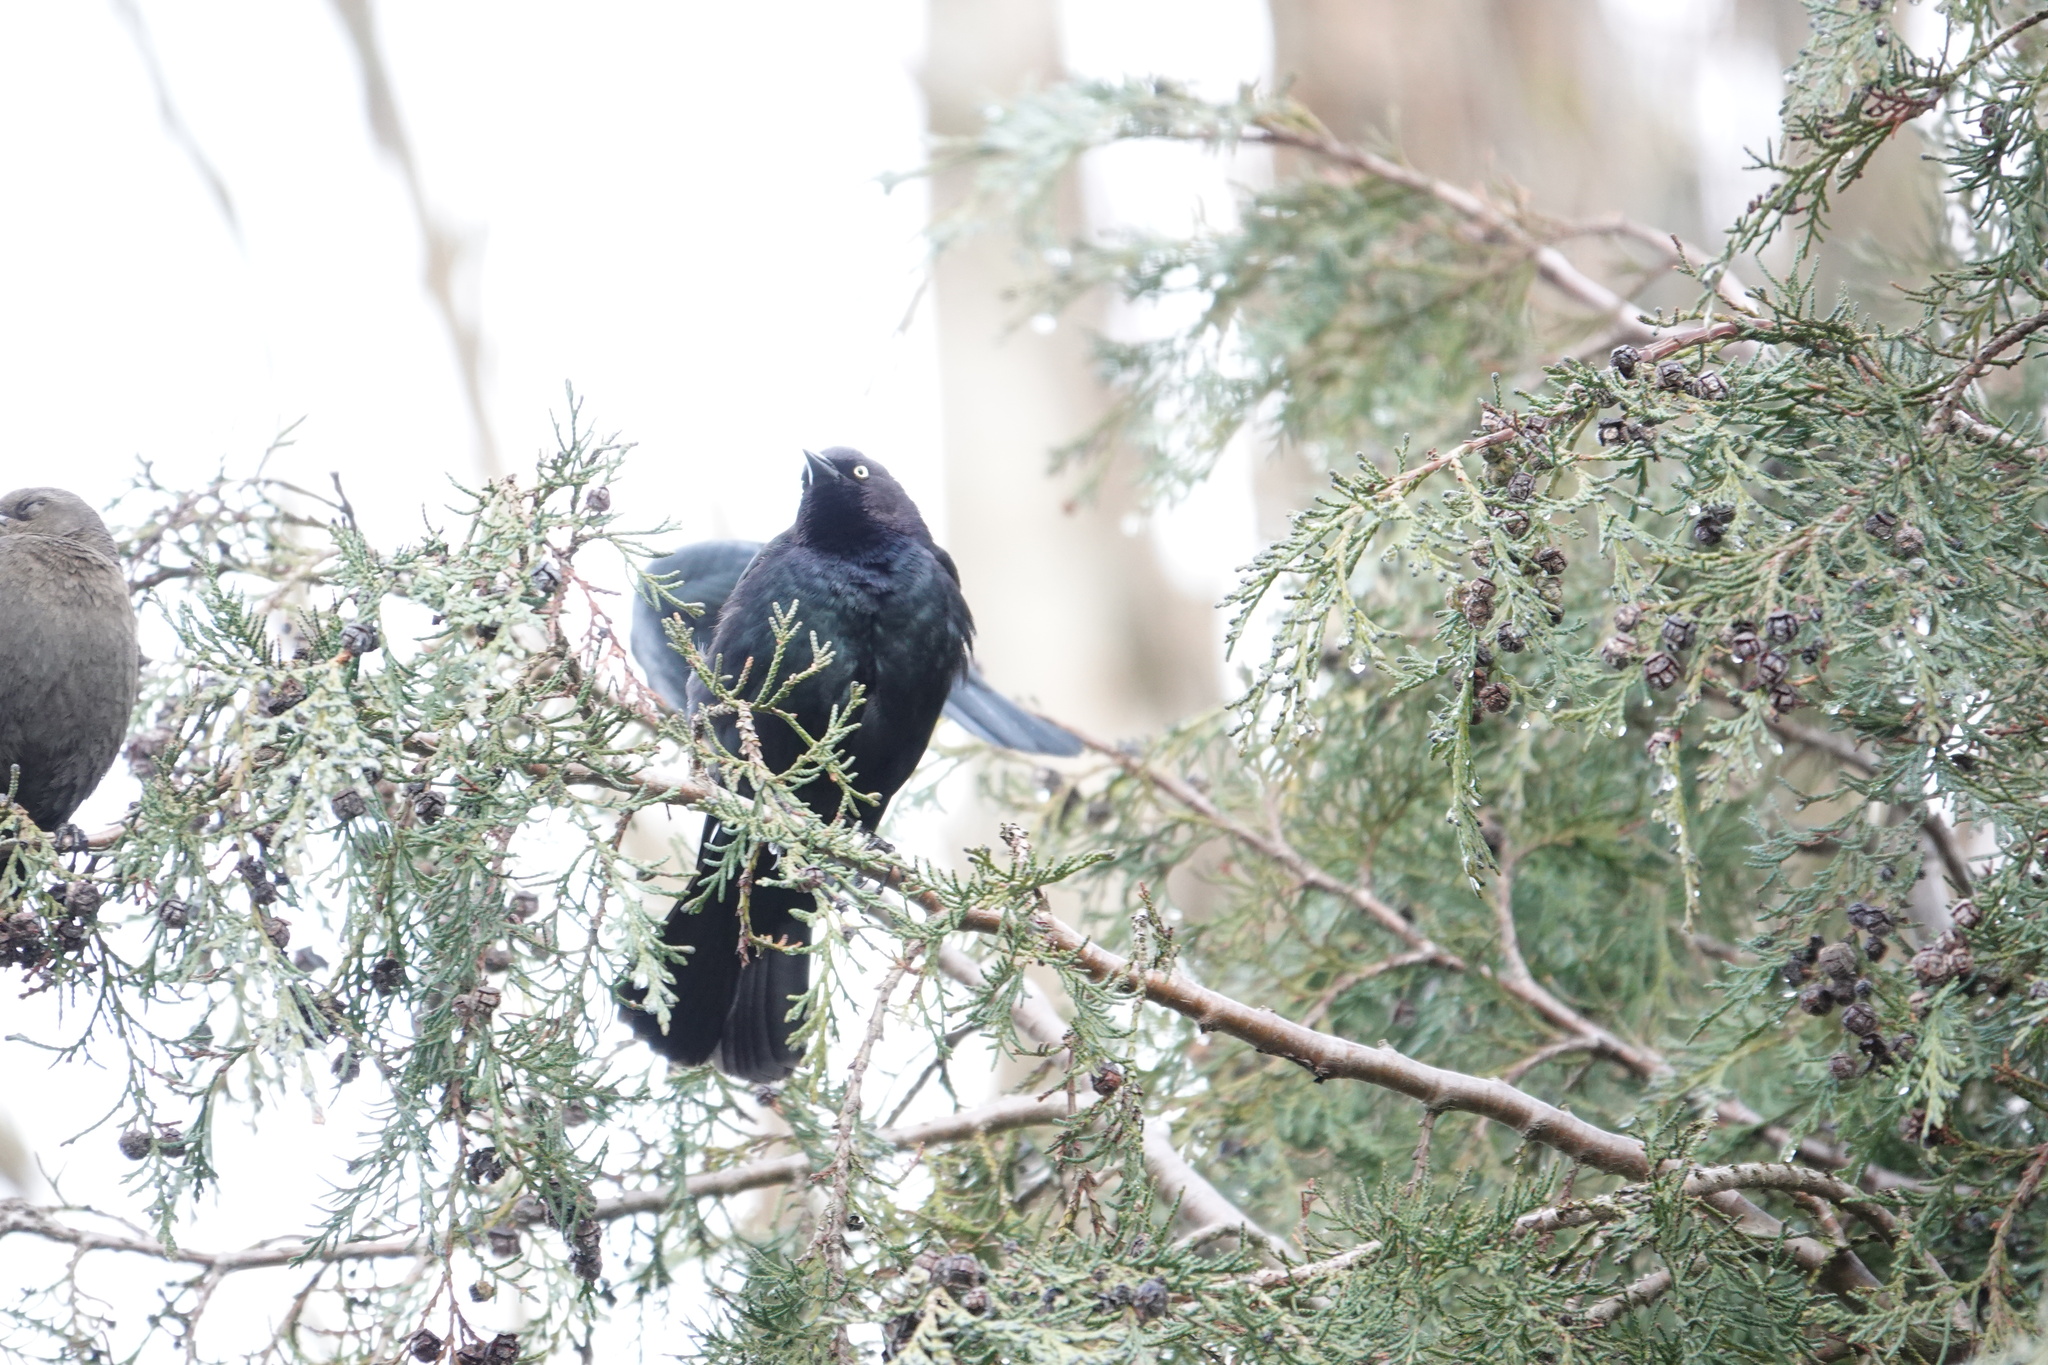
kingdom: Animalia
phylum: Chordata
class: Aves
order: Passeriformes
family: Icteridae
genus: Euphagus
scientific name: Euphagus cyanocephalus
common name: Brewer's blackbird
